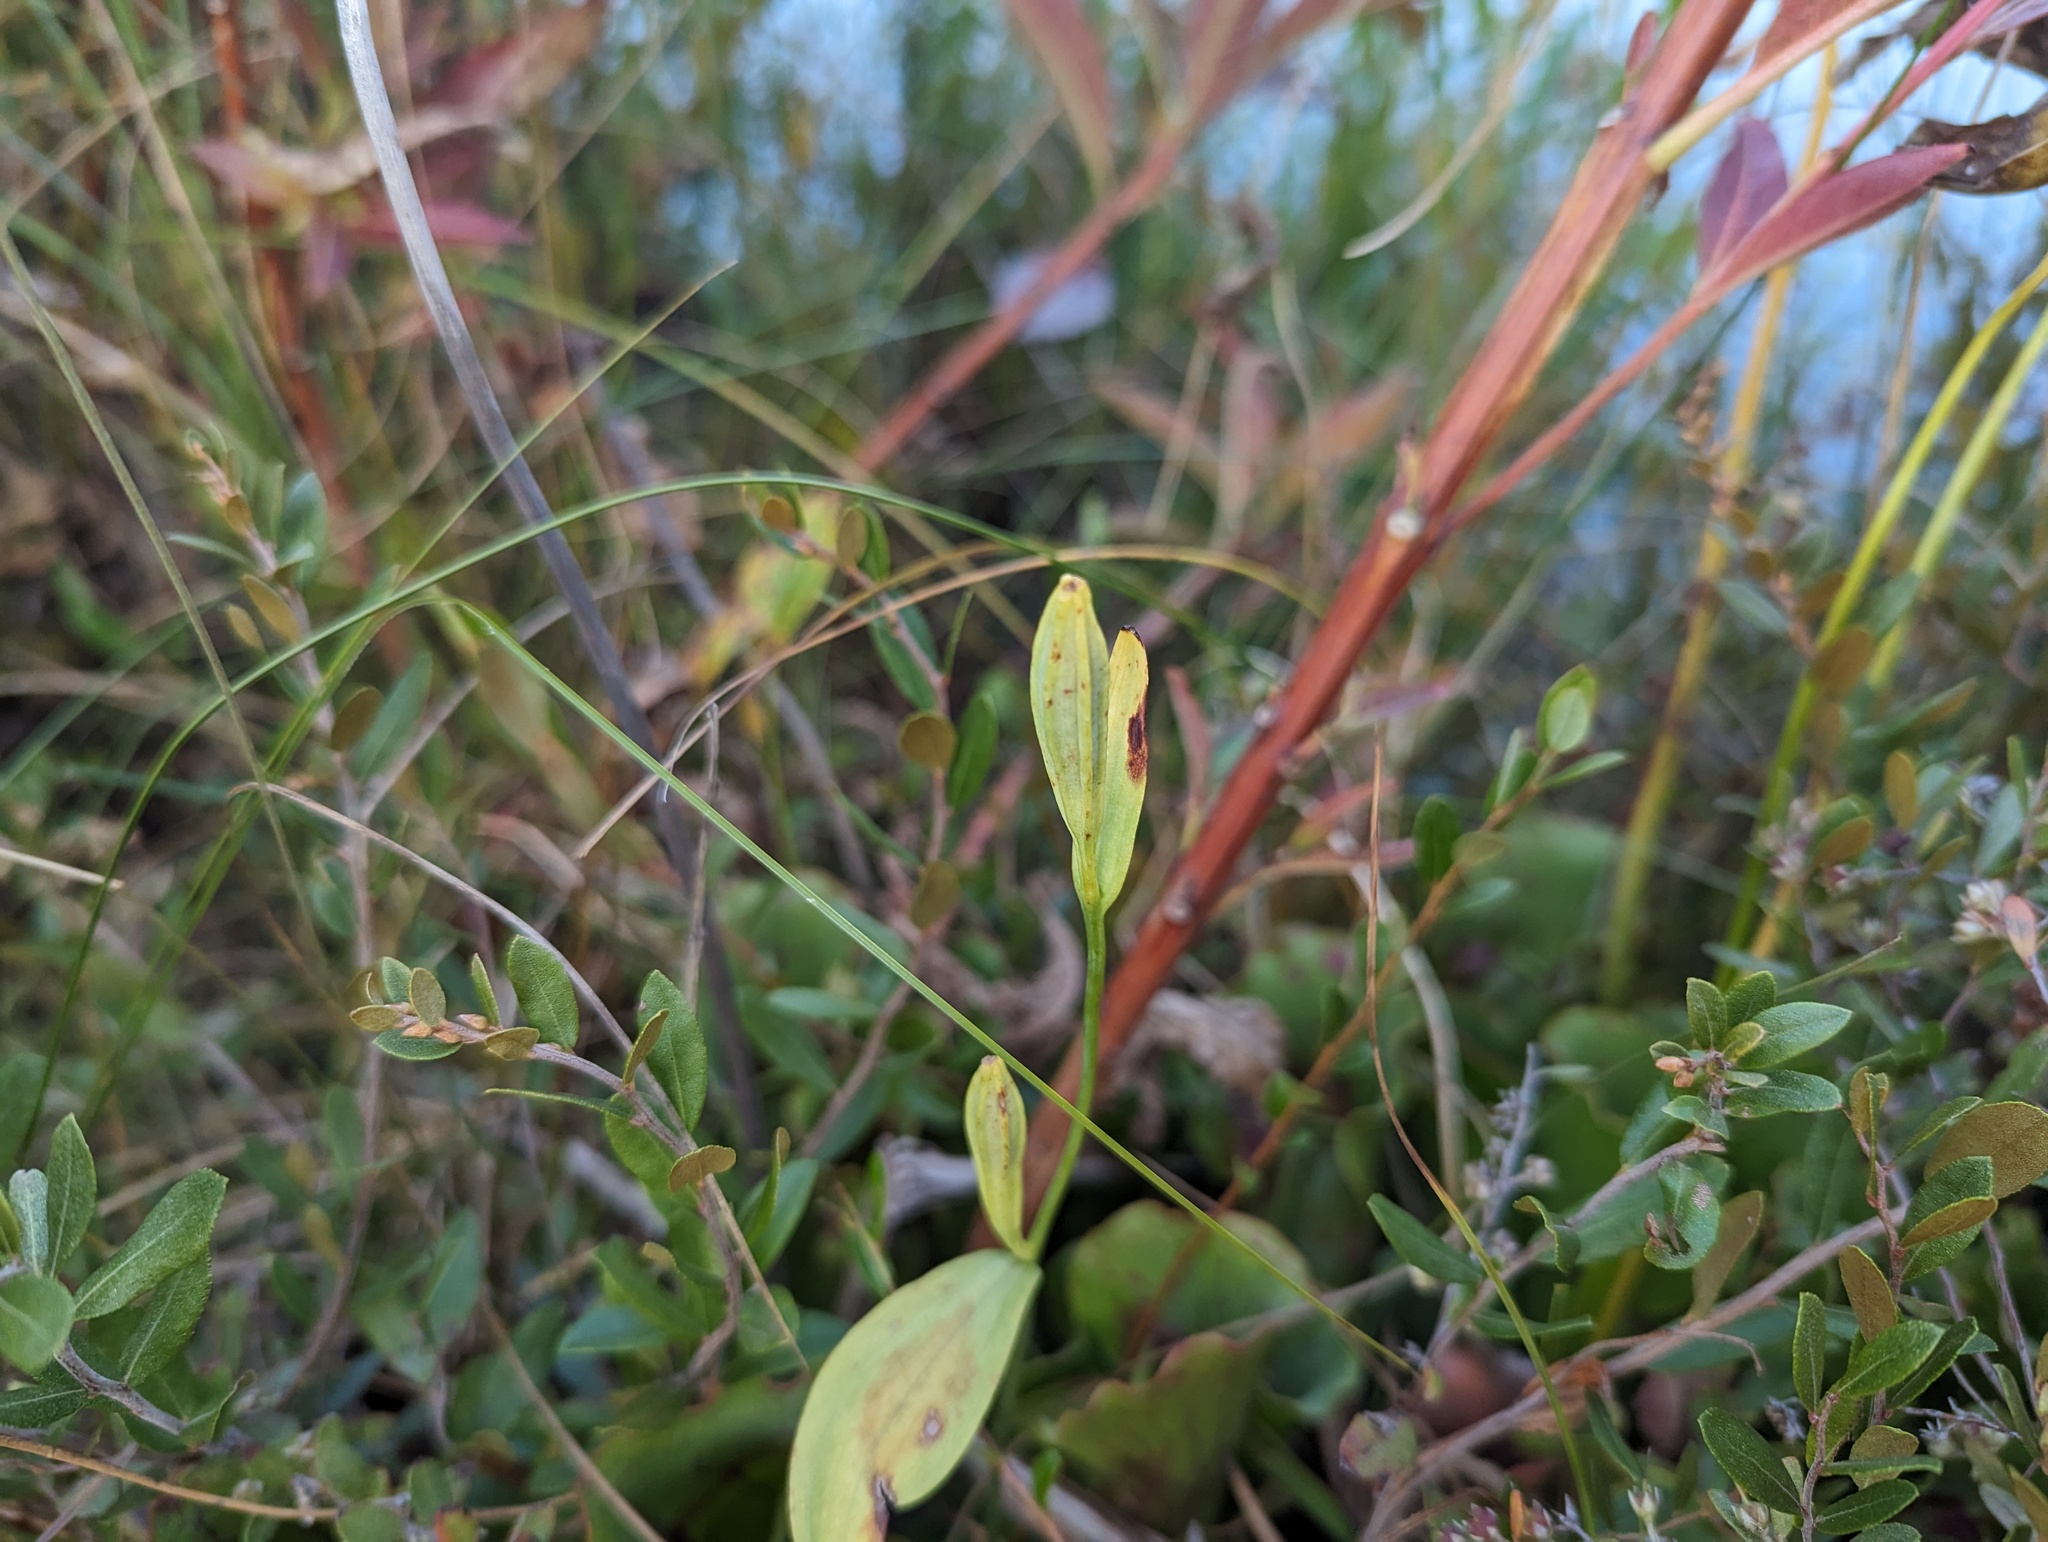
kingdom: Plantae
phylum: Tracheophyta
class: Liliopsida
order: Asparagales
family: Orchidaceae
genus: Pogonia
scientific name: Pogonia ophioglossoides
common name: Rose pogonia
